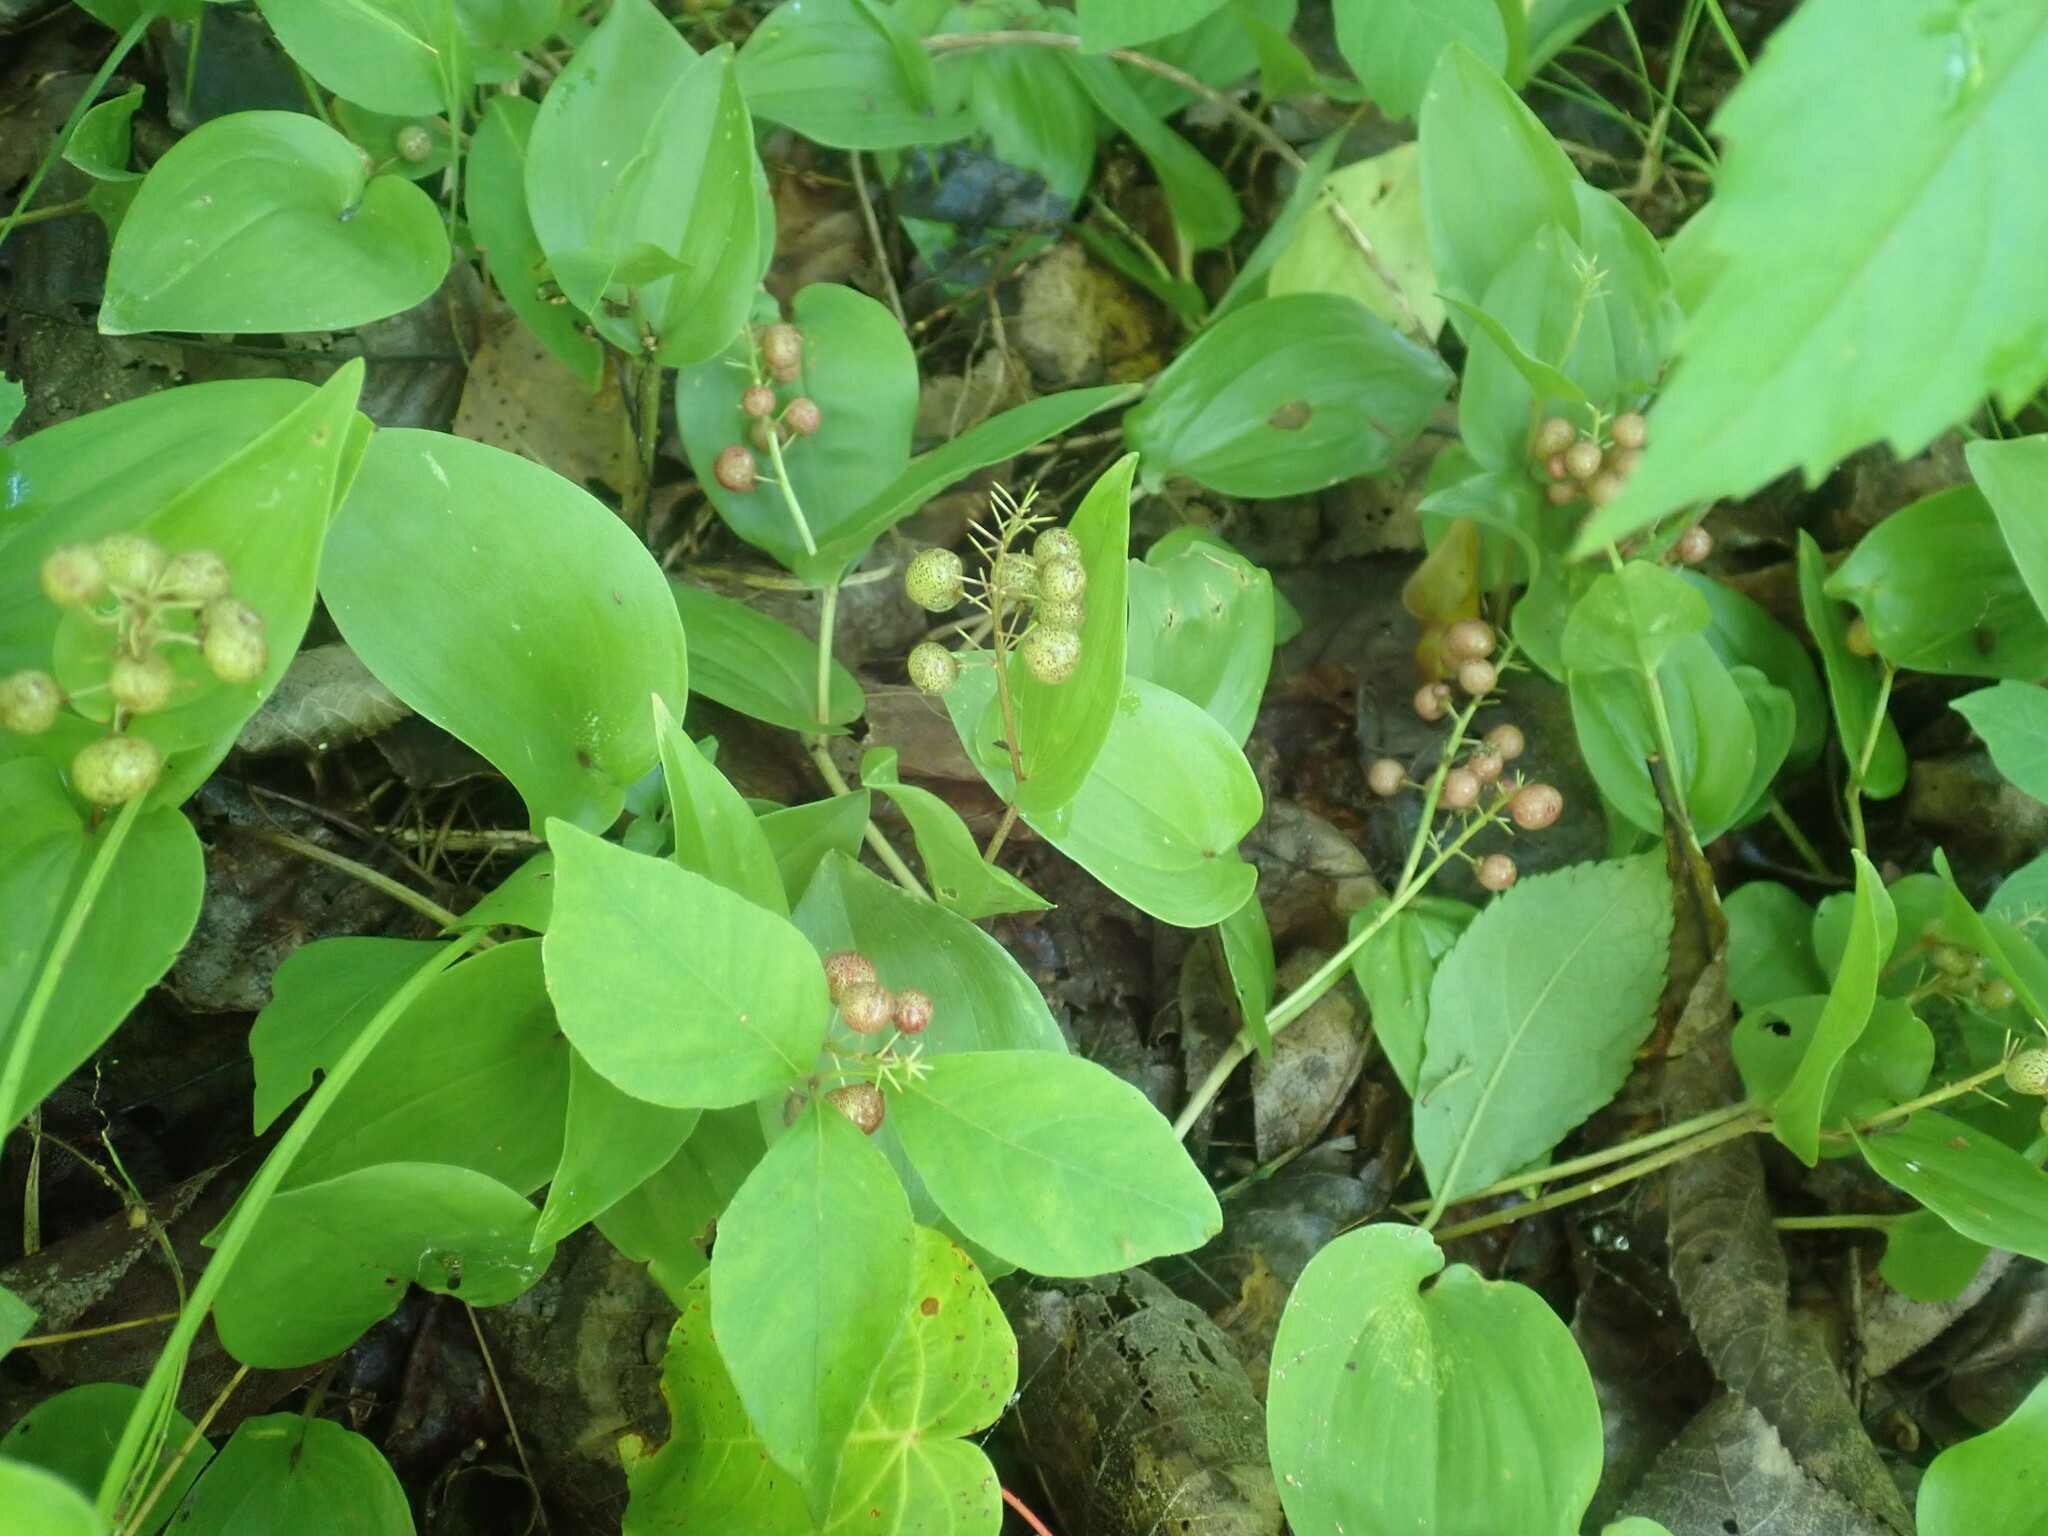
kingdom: Plantae
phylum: Tracheophyta
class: Liliopsida
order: Asparagales
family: Asparagaceae
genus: Maianthemum
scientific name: Maianthemum canadense
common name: False lily-of-the-valley
